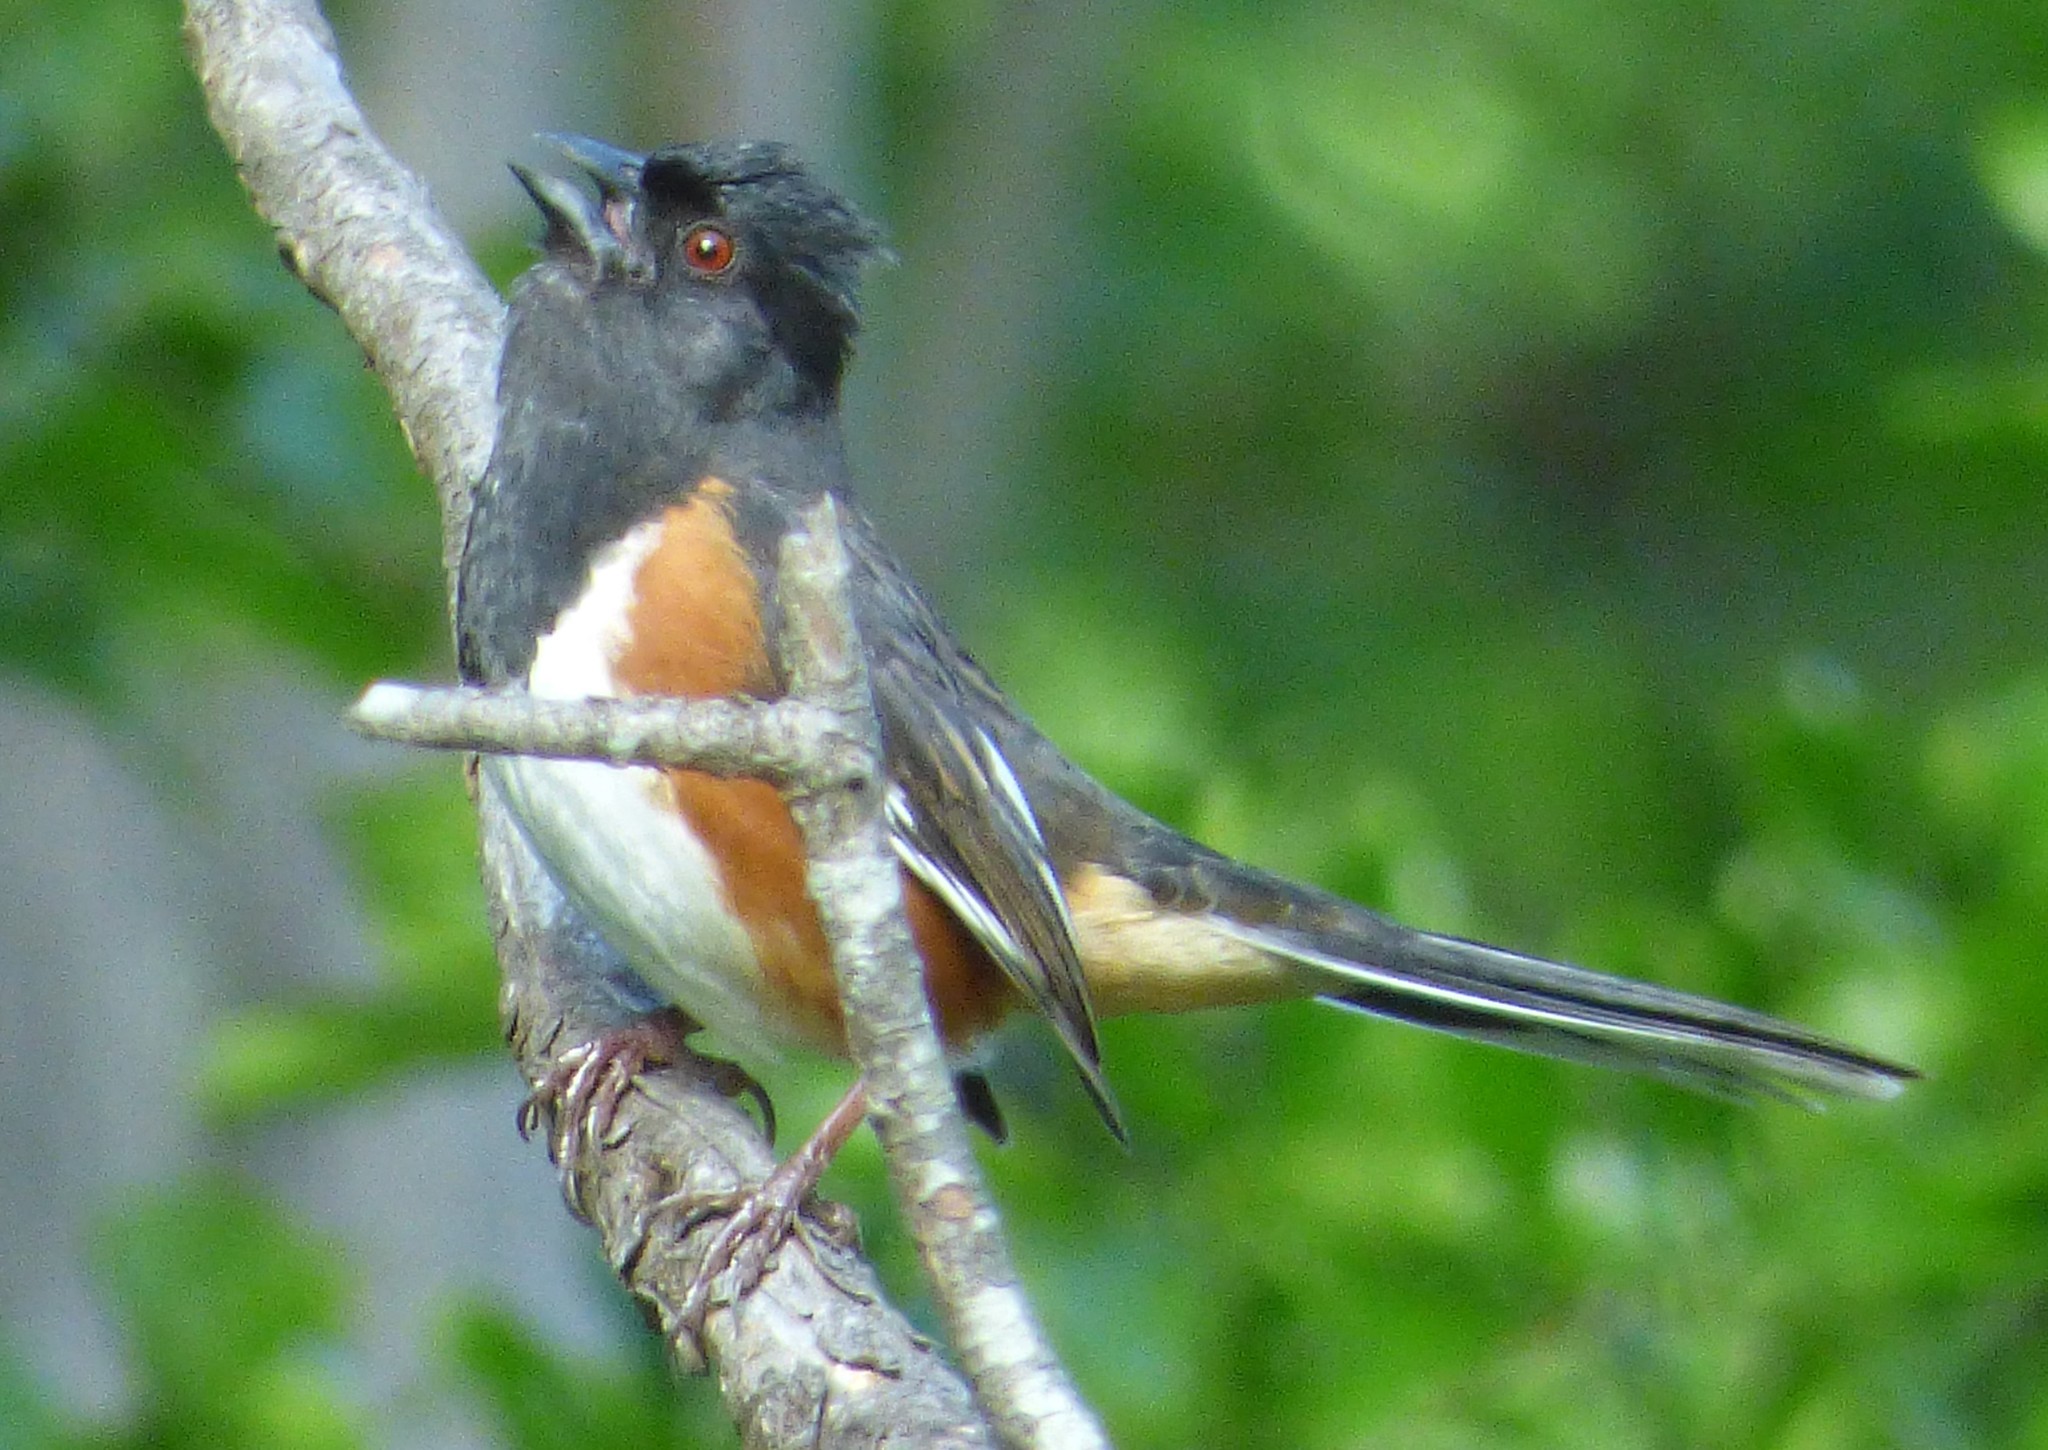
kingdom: Animalia
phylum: Chordata
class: Aves
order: Passeriformes
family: Passerellidae
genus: Pipilo
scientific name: Pipilo erythrophthalmus
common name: Eastern towhee
